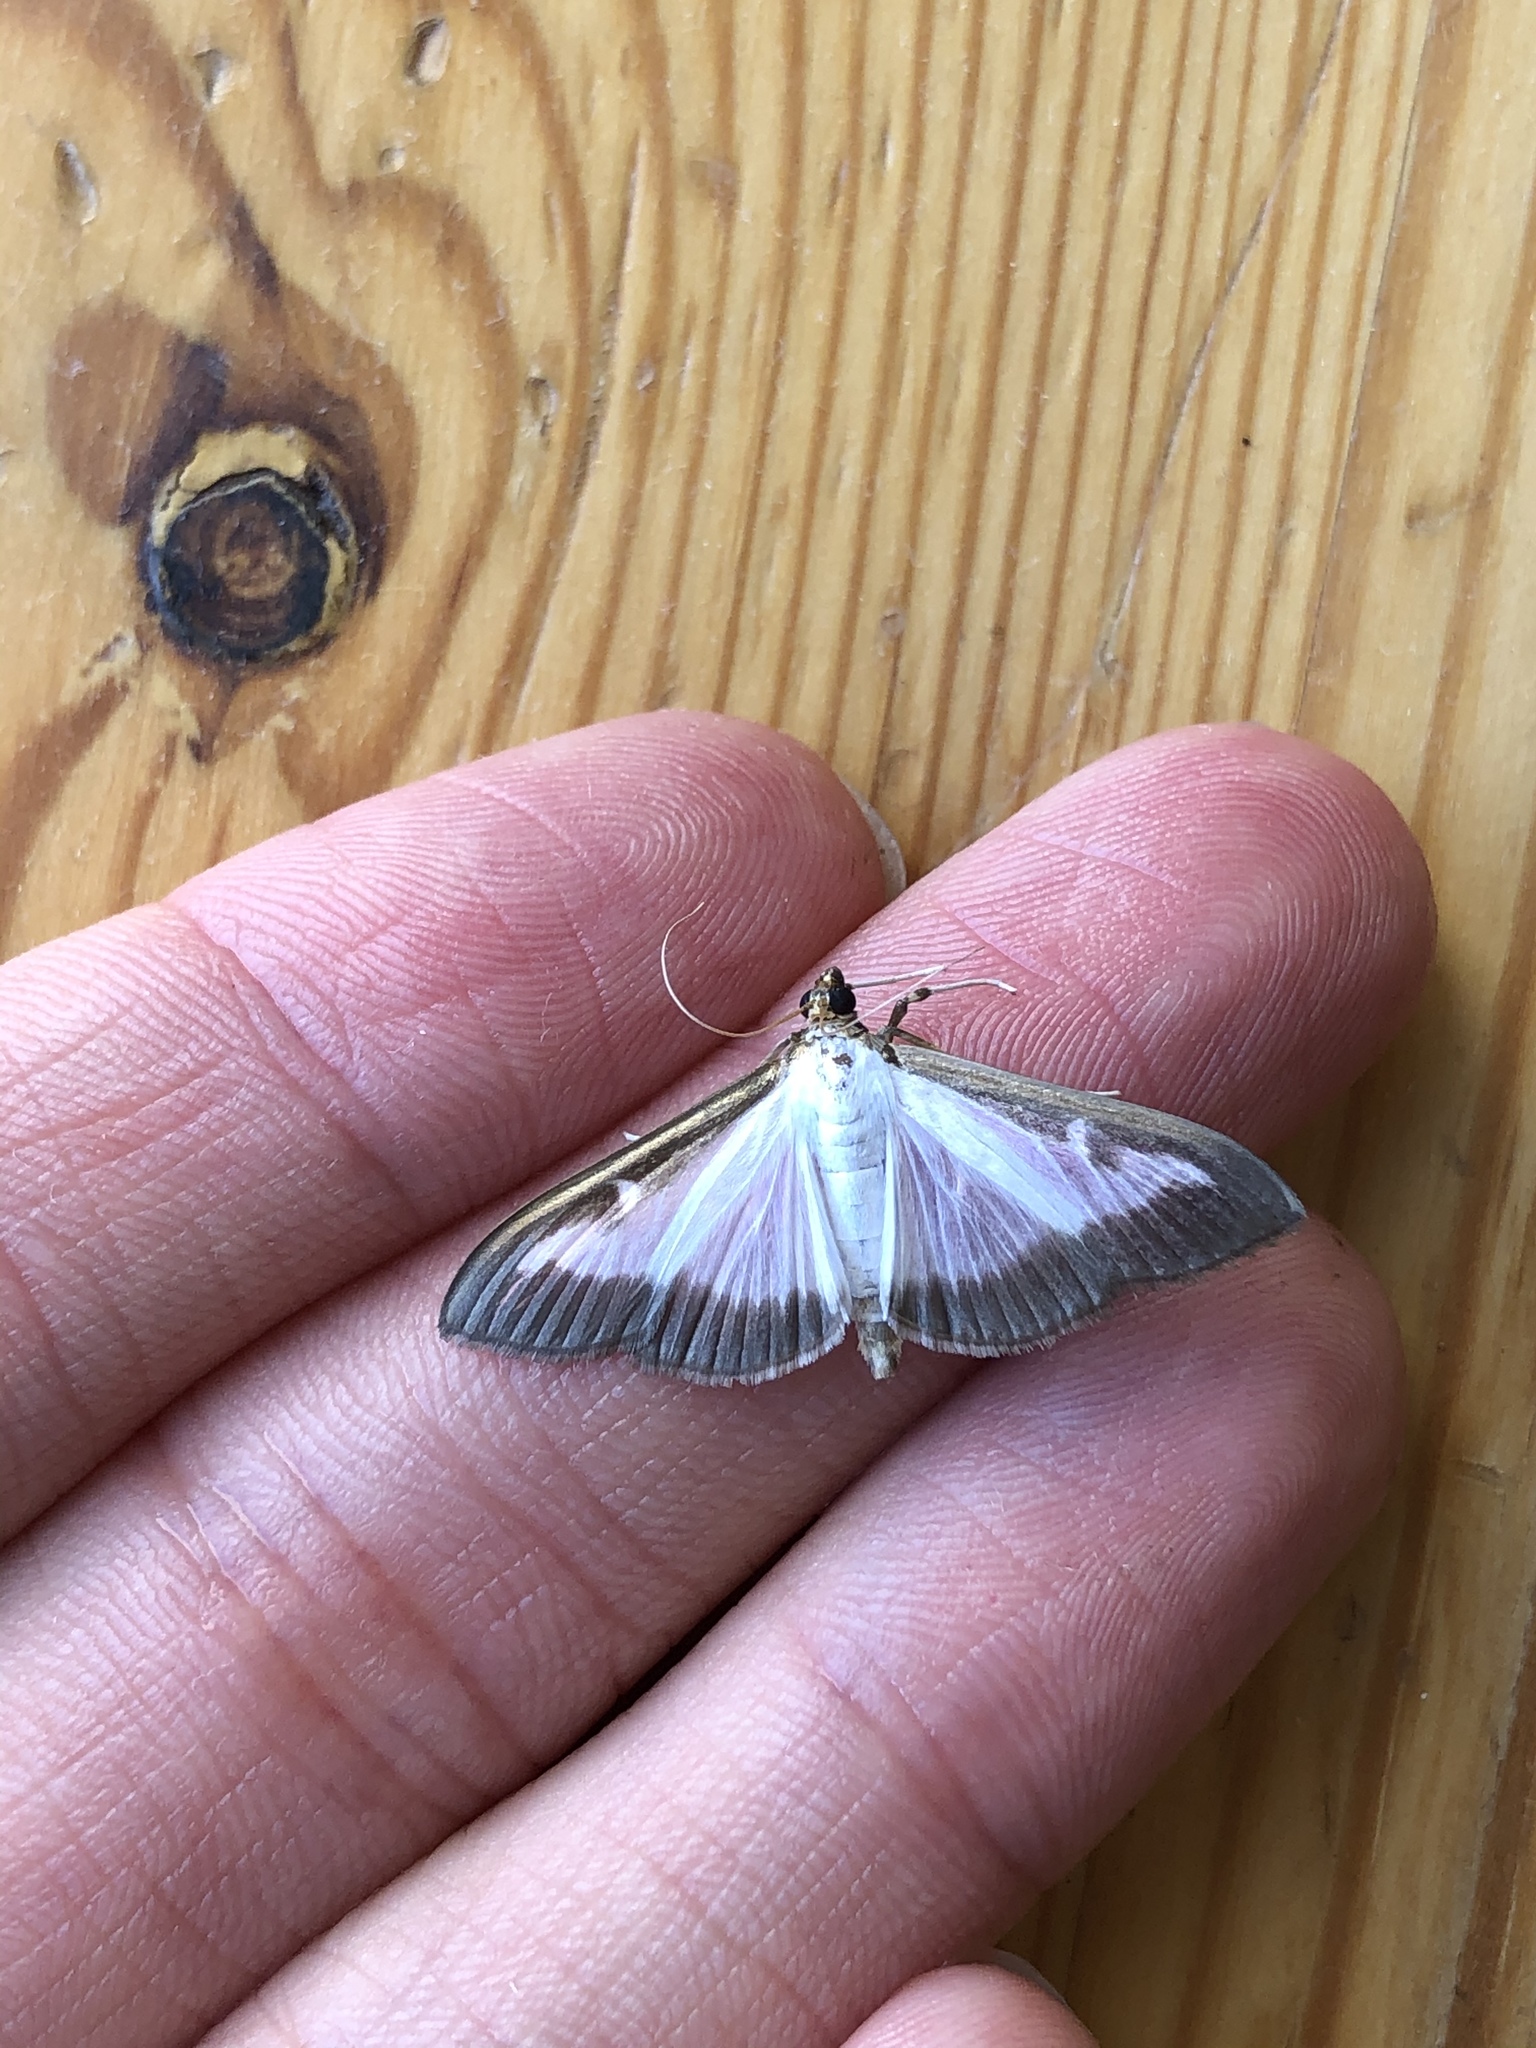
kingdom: Animalia
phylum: Arthropoda
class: Insecta
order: Lepidoptera
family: Crambidae
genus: Cydalima
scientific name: Cydalima perspectalis
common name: Box tree moth
